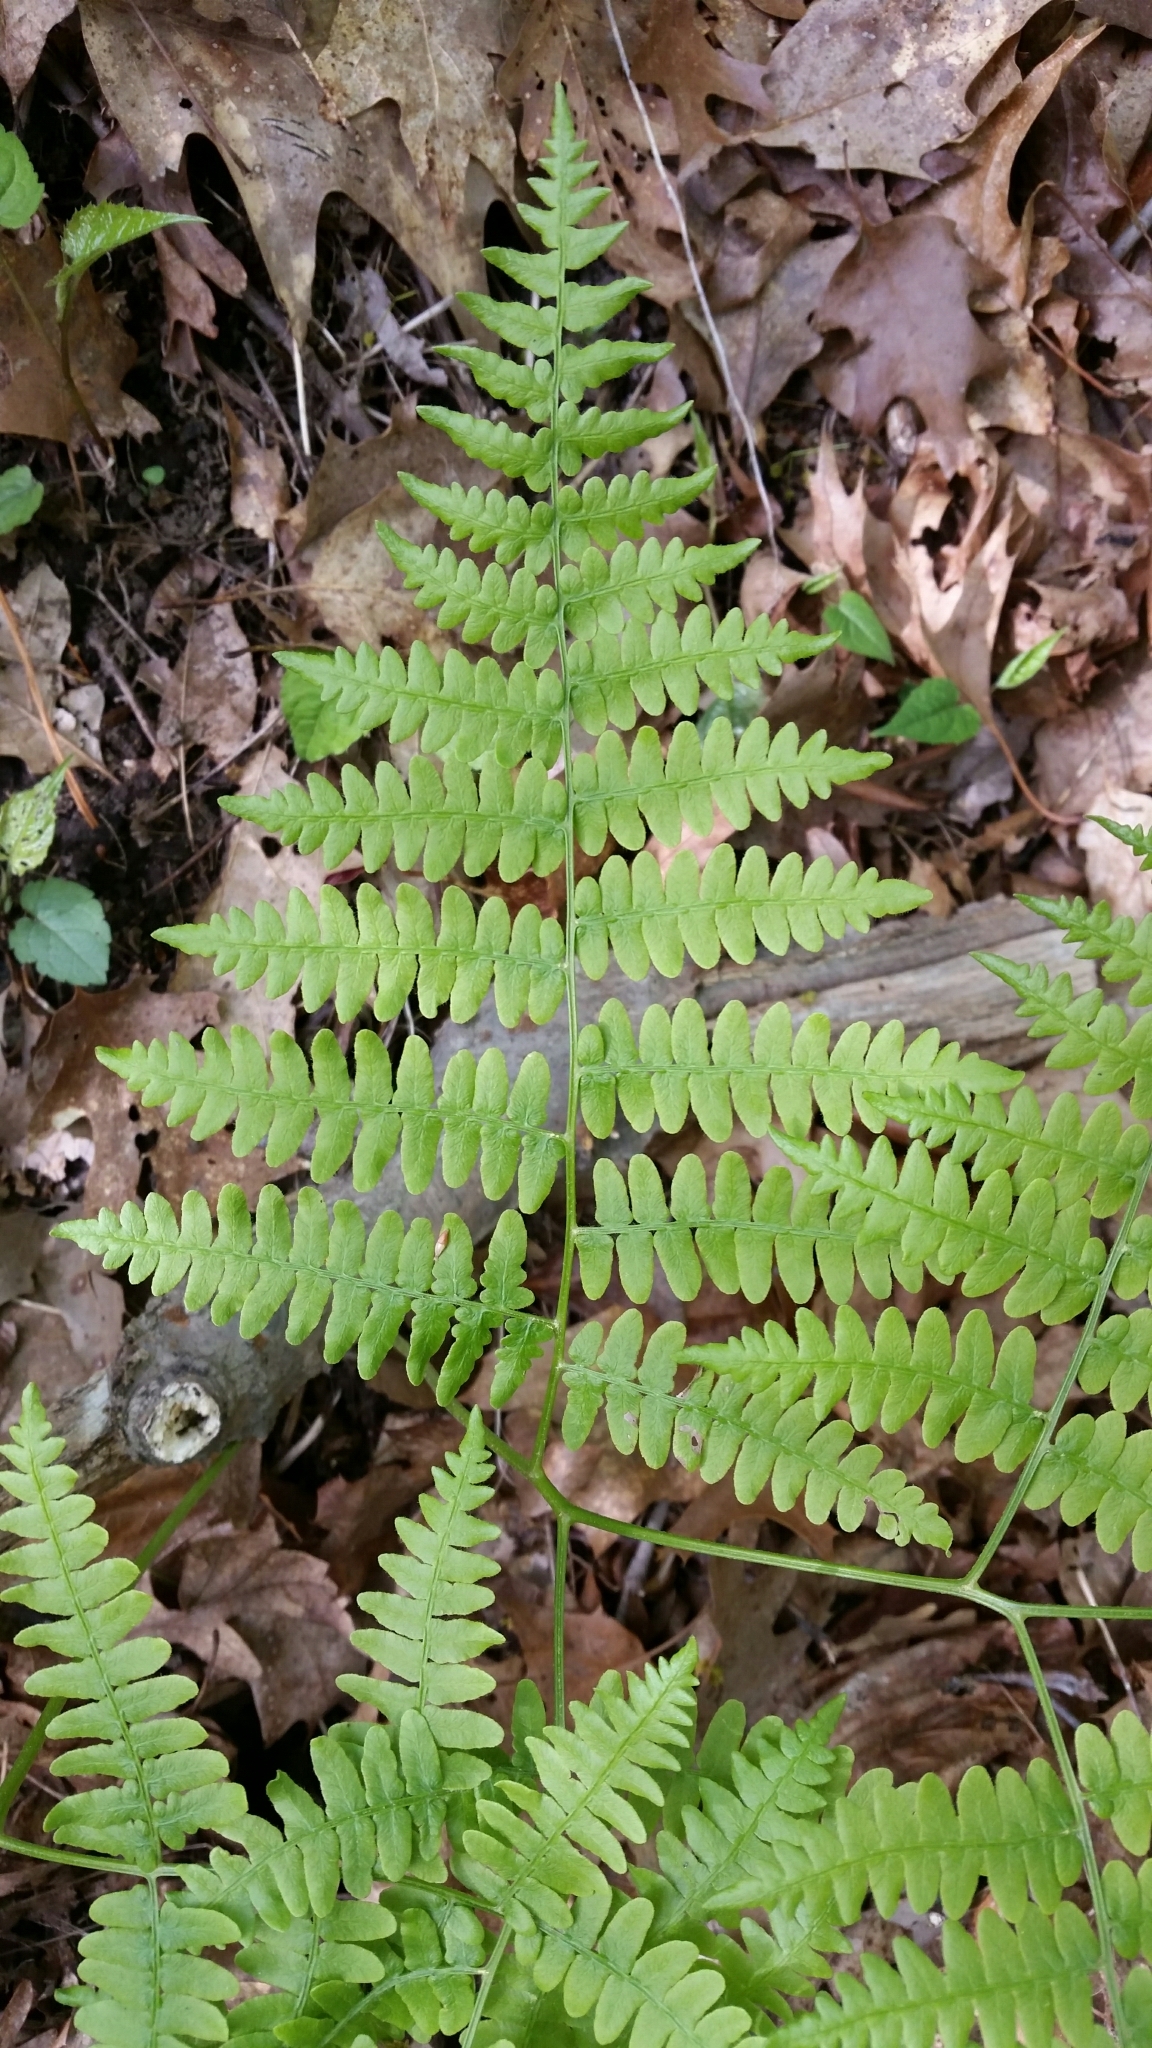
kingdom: Plantae
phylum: Tracheophyta
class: Polypodiopsida
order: Polypodiales
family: Dennstaedtiaceae
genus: Pteridium
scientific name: Pteridium aquilinum
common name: Bracken
